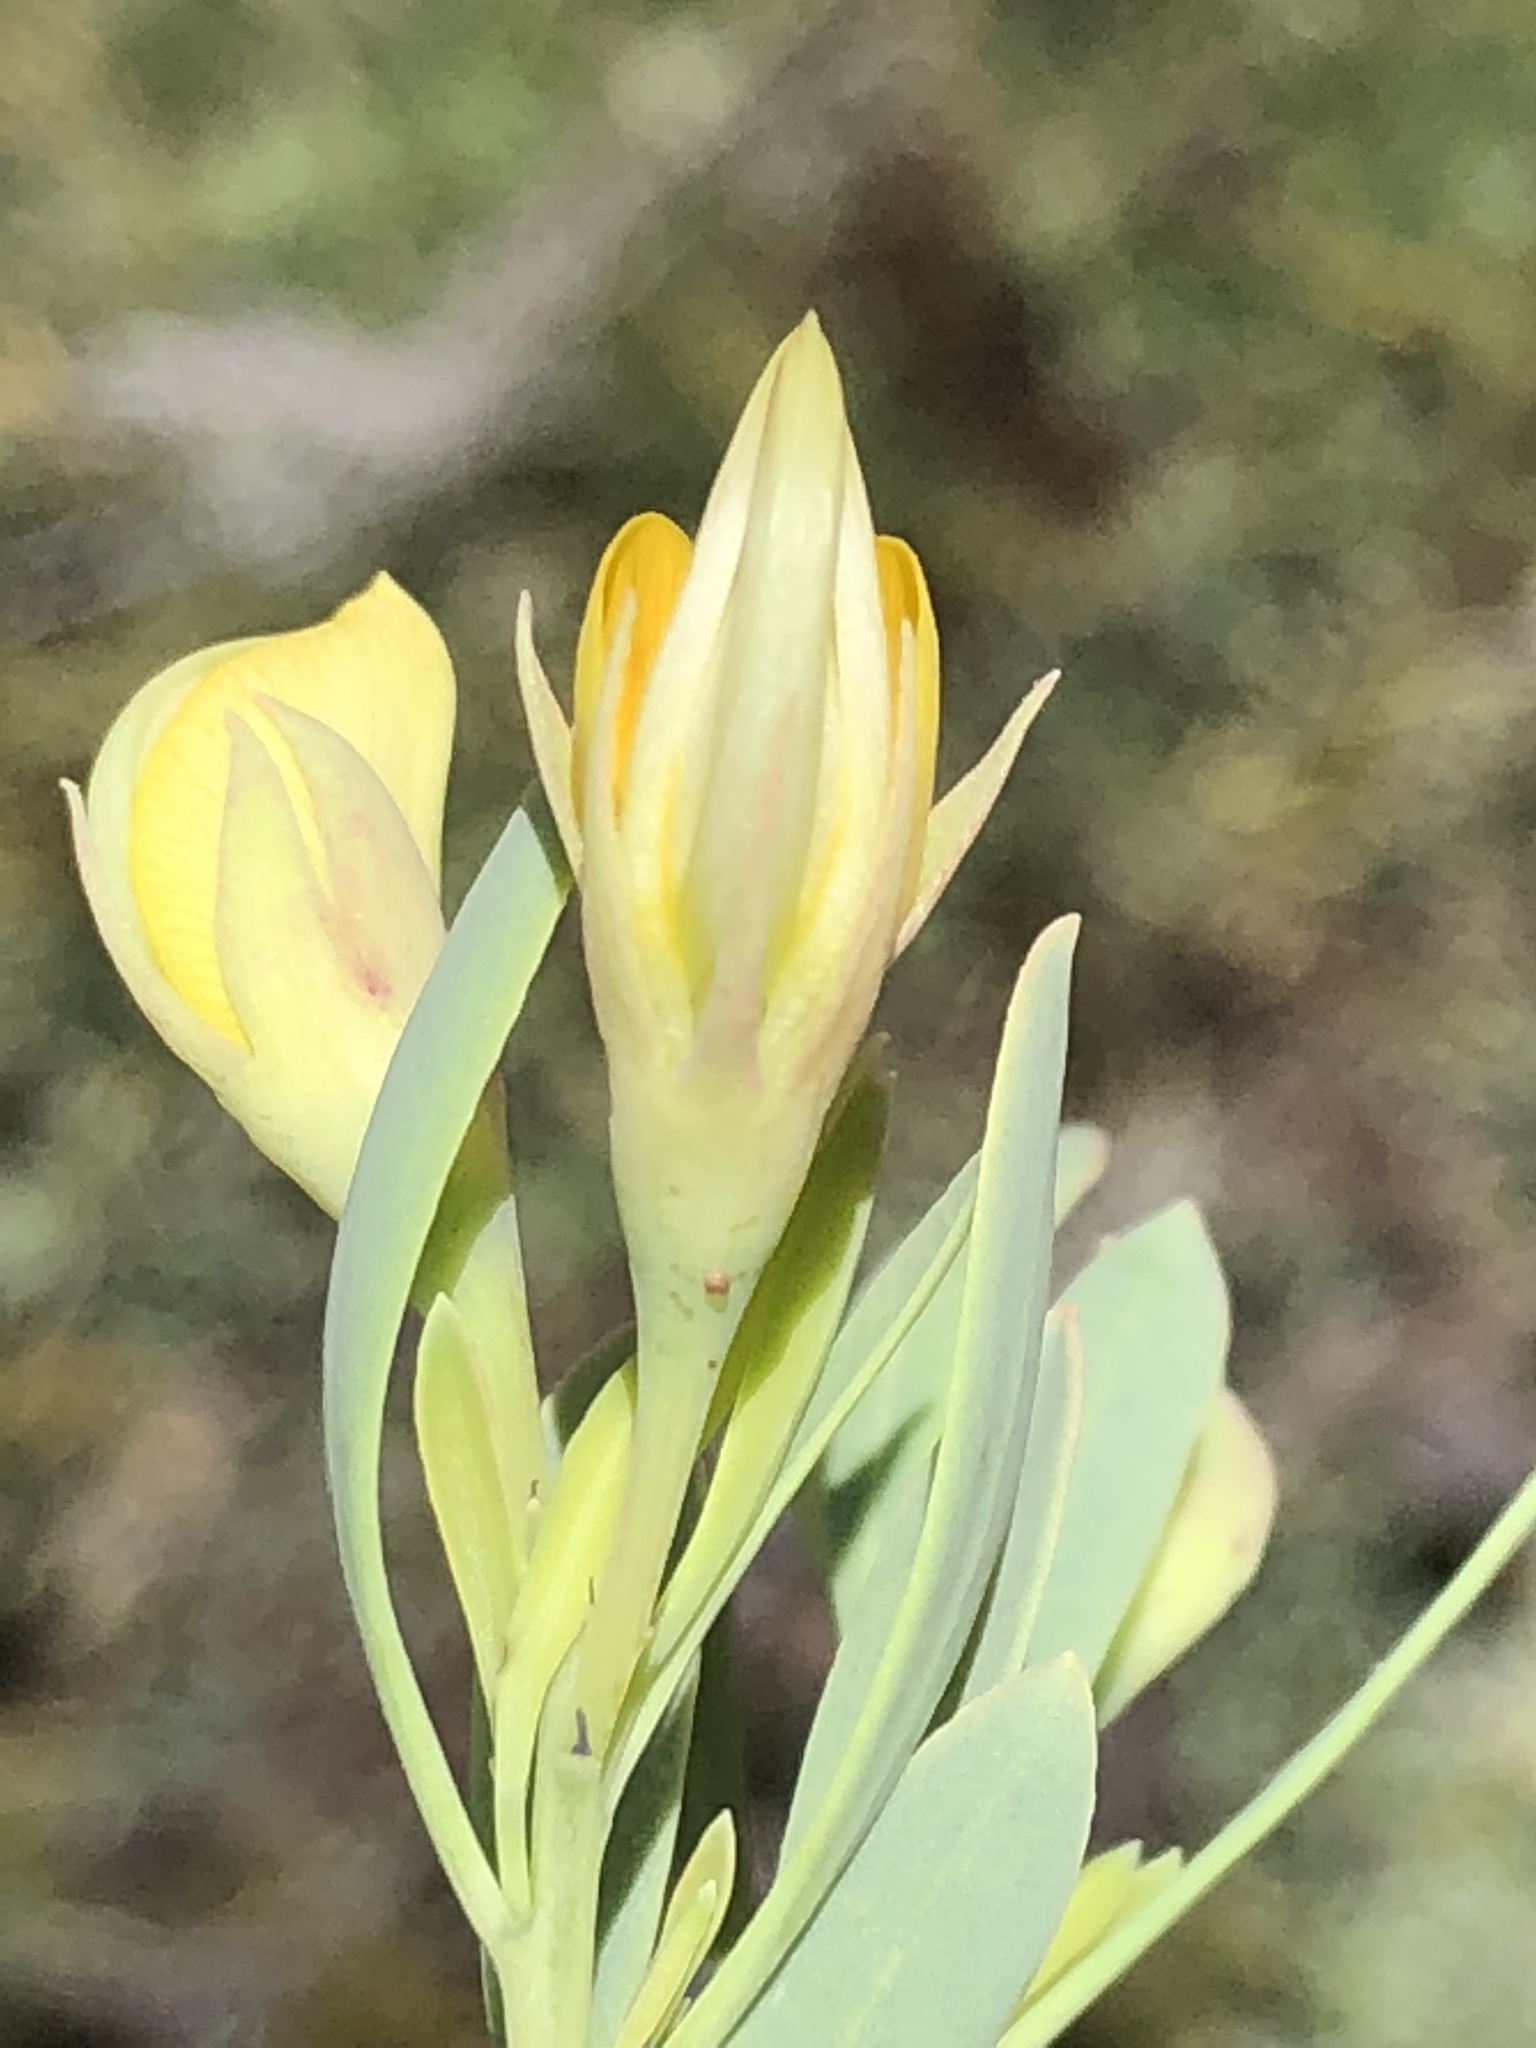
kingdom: Plantae
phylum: Tracheophyta
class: Magnoliopsida
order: Fabales
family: Fabaceae
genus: Rafnia
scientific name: Rafnia rostrata
